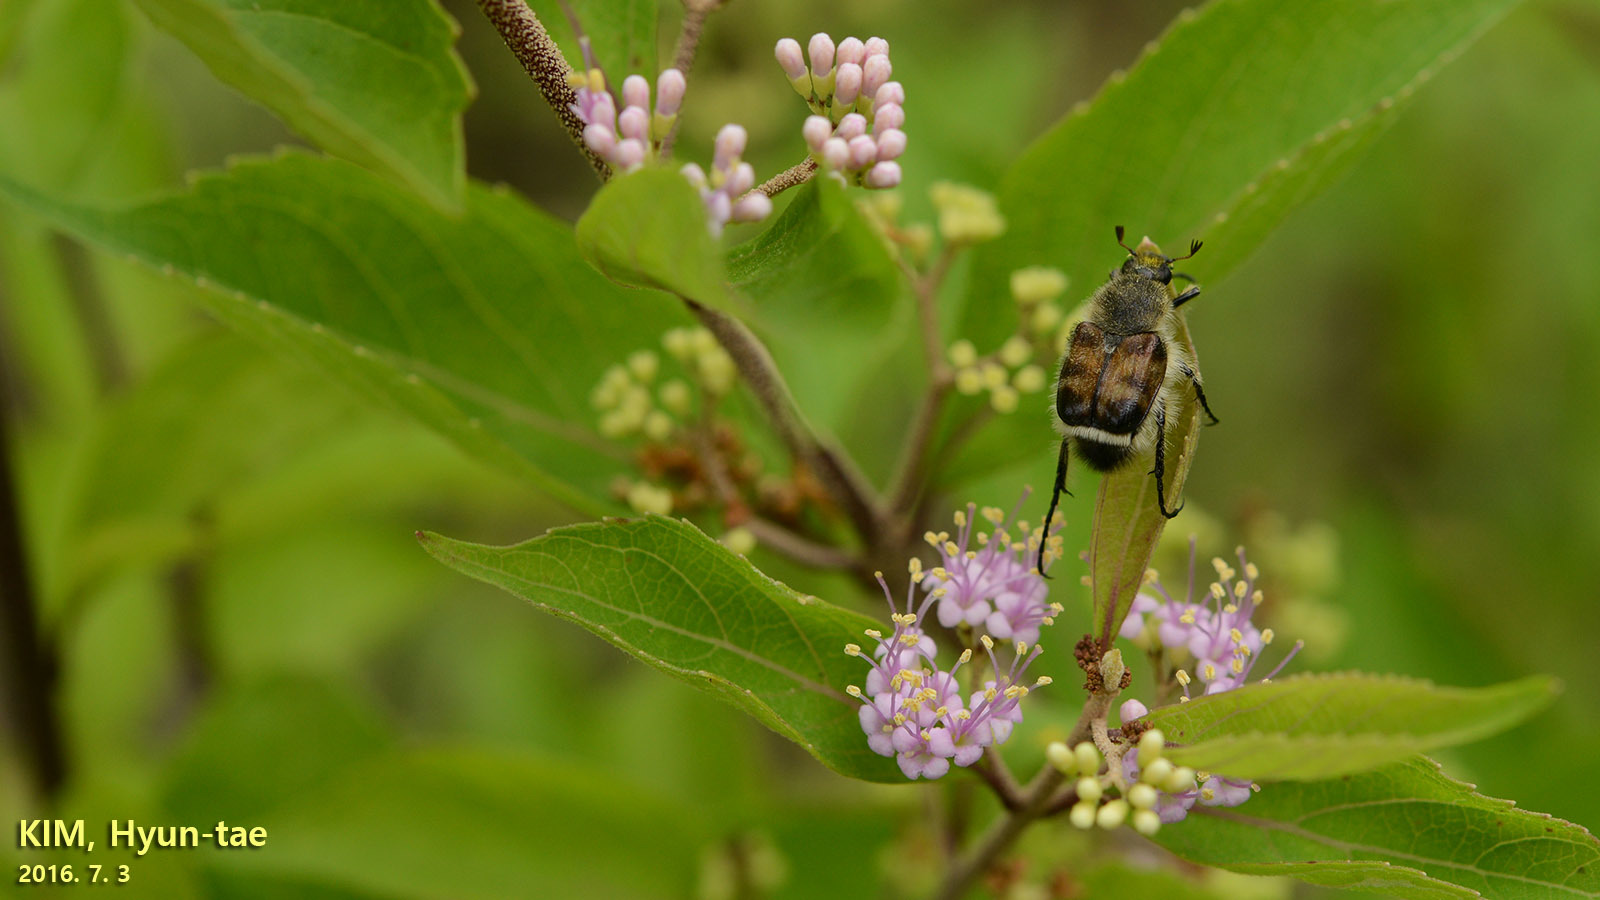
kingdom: Animalia
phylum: Arthropoda
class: Insecta
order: Coleoptera
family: Scarabaeidae
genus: Lasiotrichius
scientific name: Lasiotrichius succinctus
